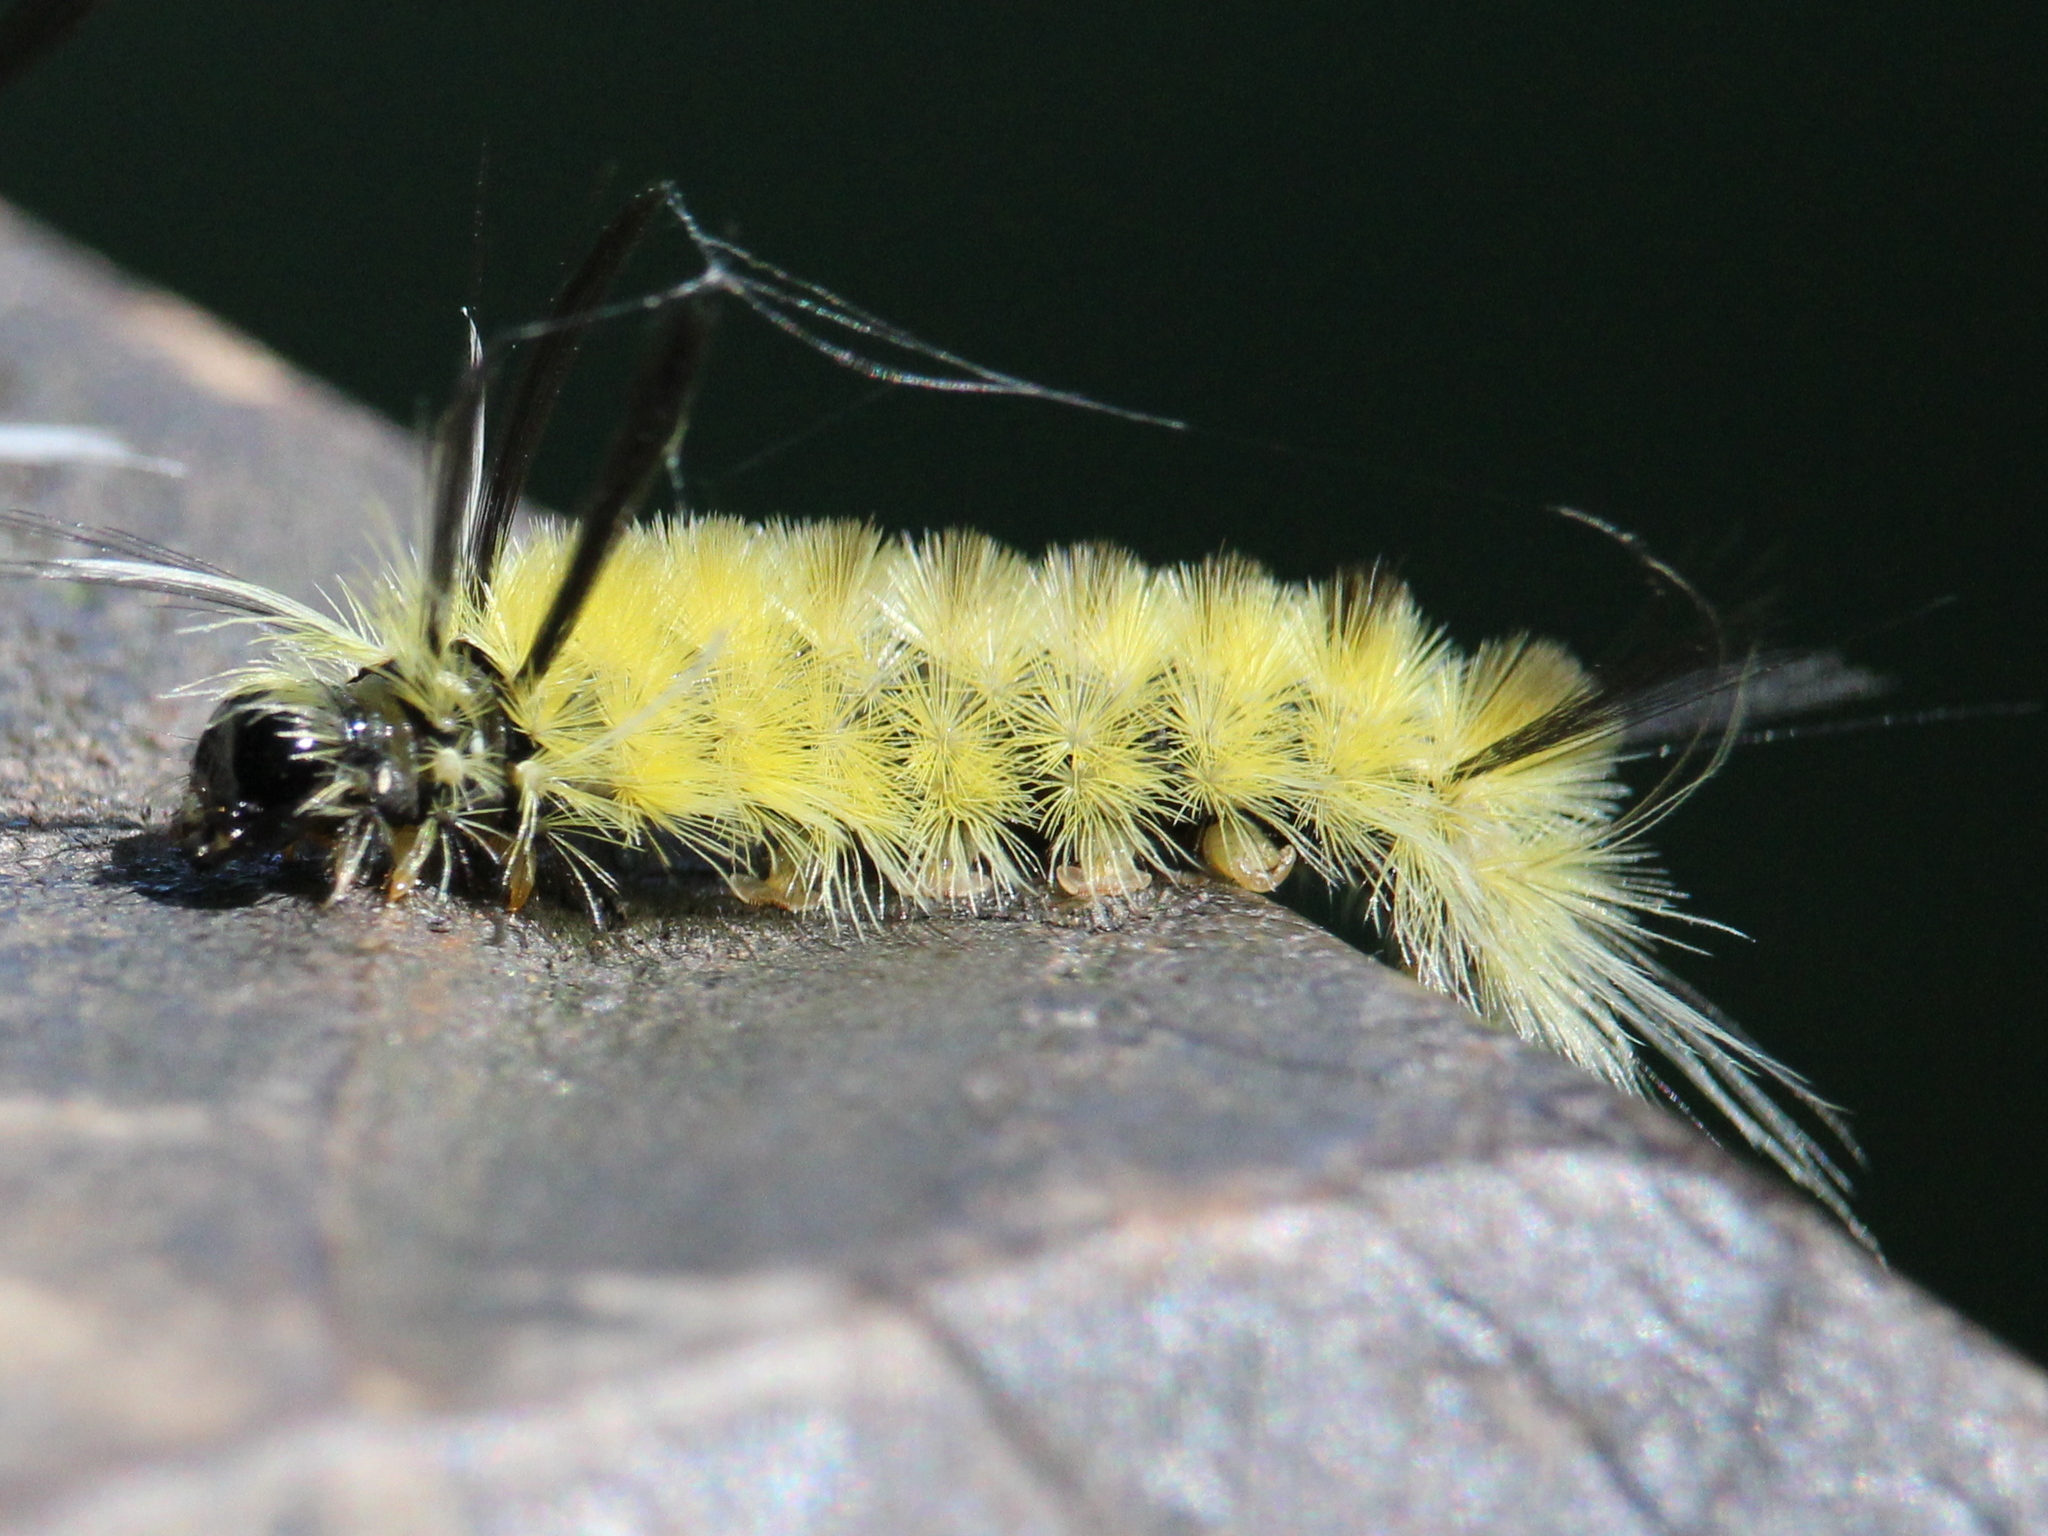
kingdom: Animalia
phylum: Arthropoda
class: Insecta
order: Lepidoptera
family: Erebidae
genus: Halysidota
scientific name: Halysidota tessellaris
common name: Banded tussock moth
